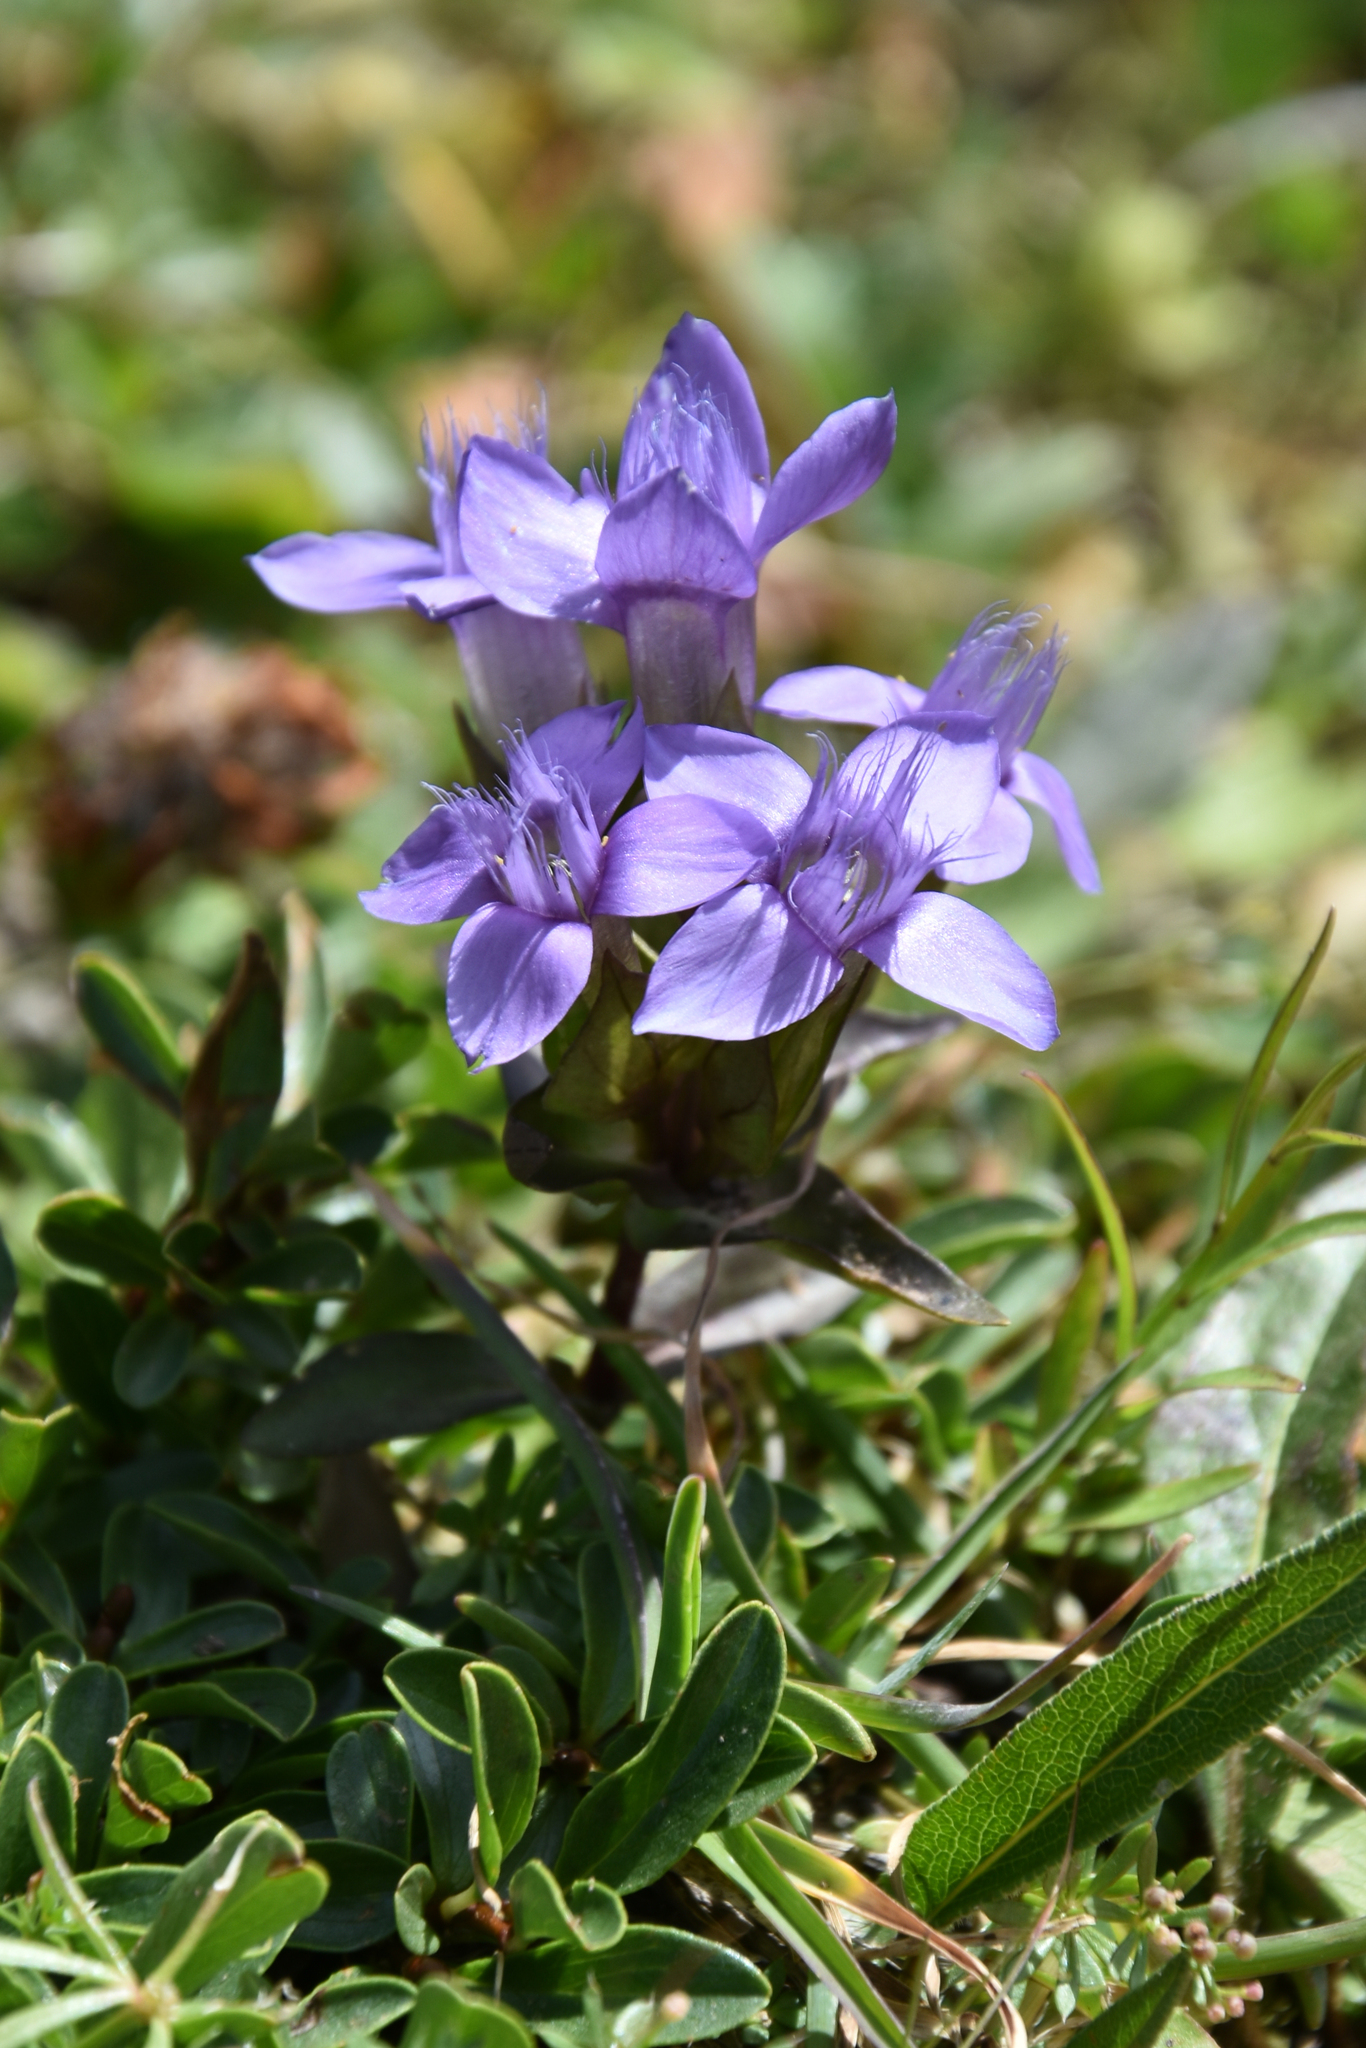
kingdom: Plantae
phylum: Tracheophyta
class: Magnoliopsida
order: Gentianales
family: Gentianaceae
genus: Gentianella
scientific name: Gentianella campestris
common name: Field gentian
